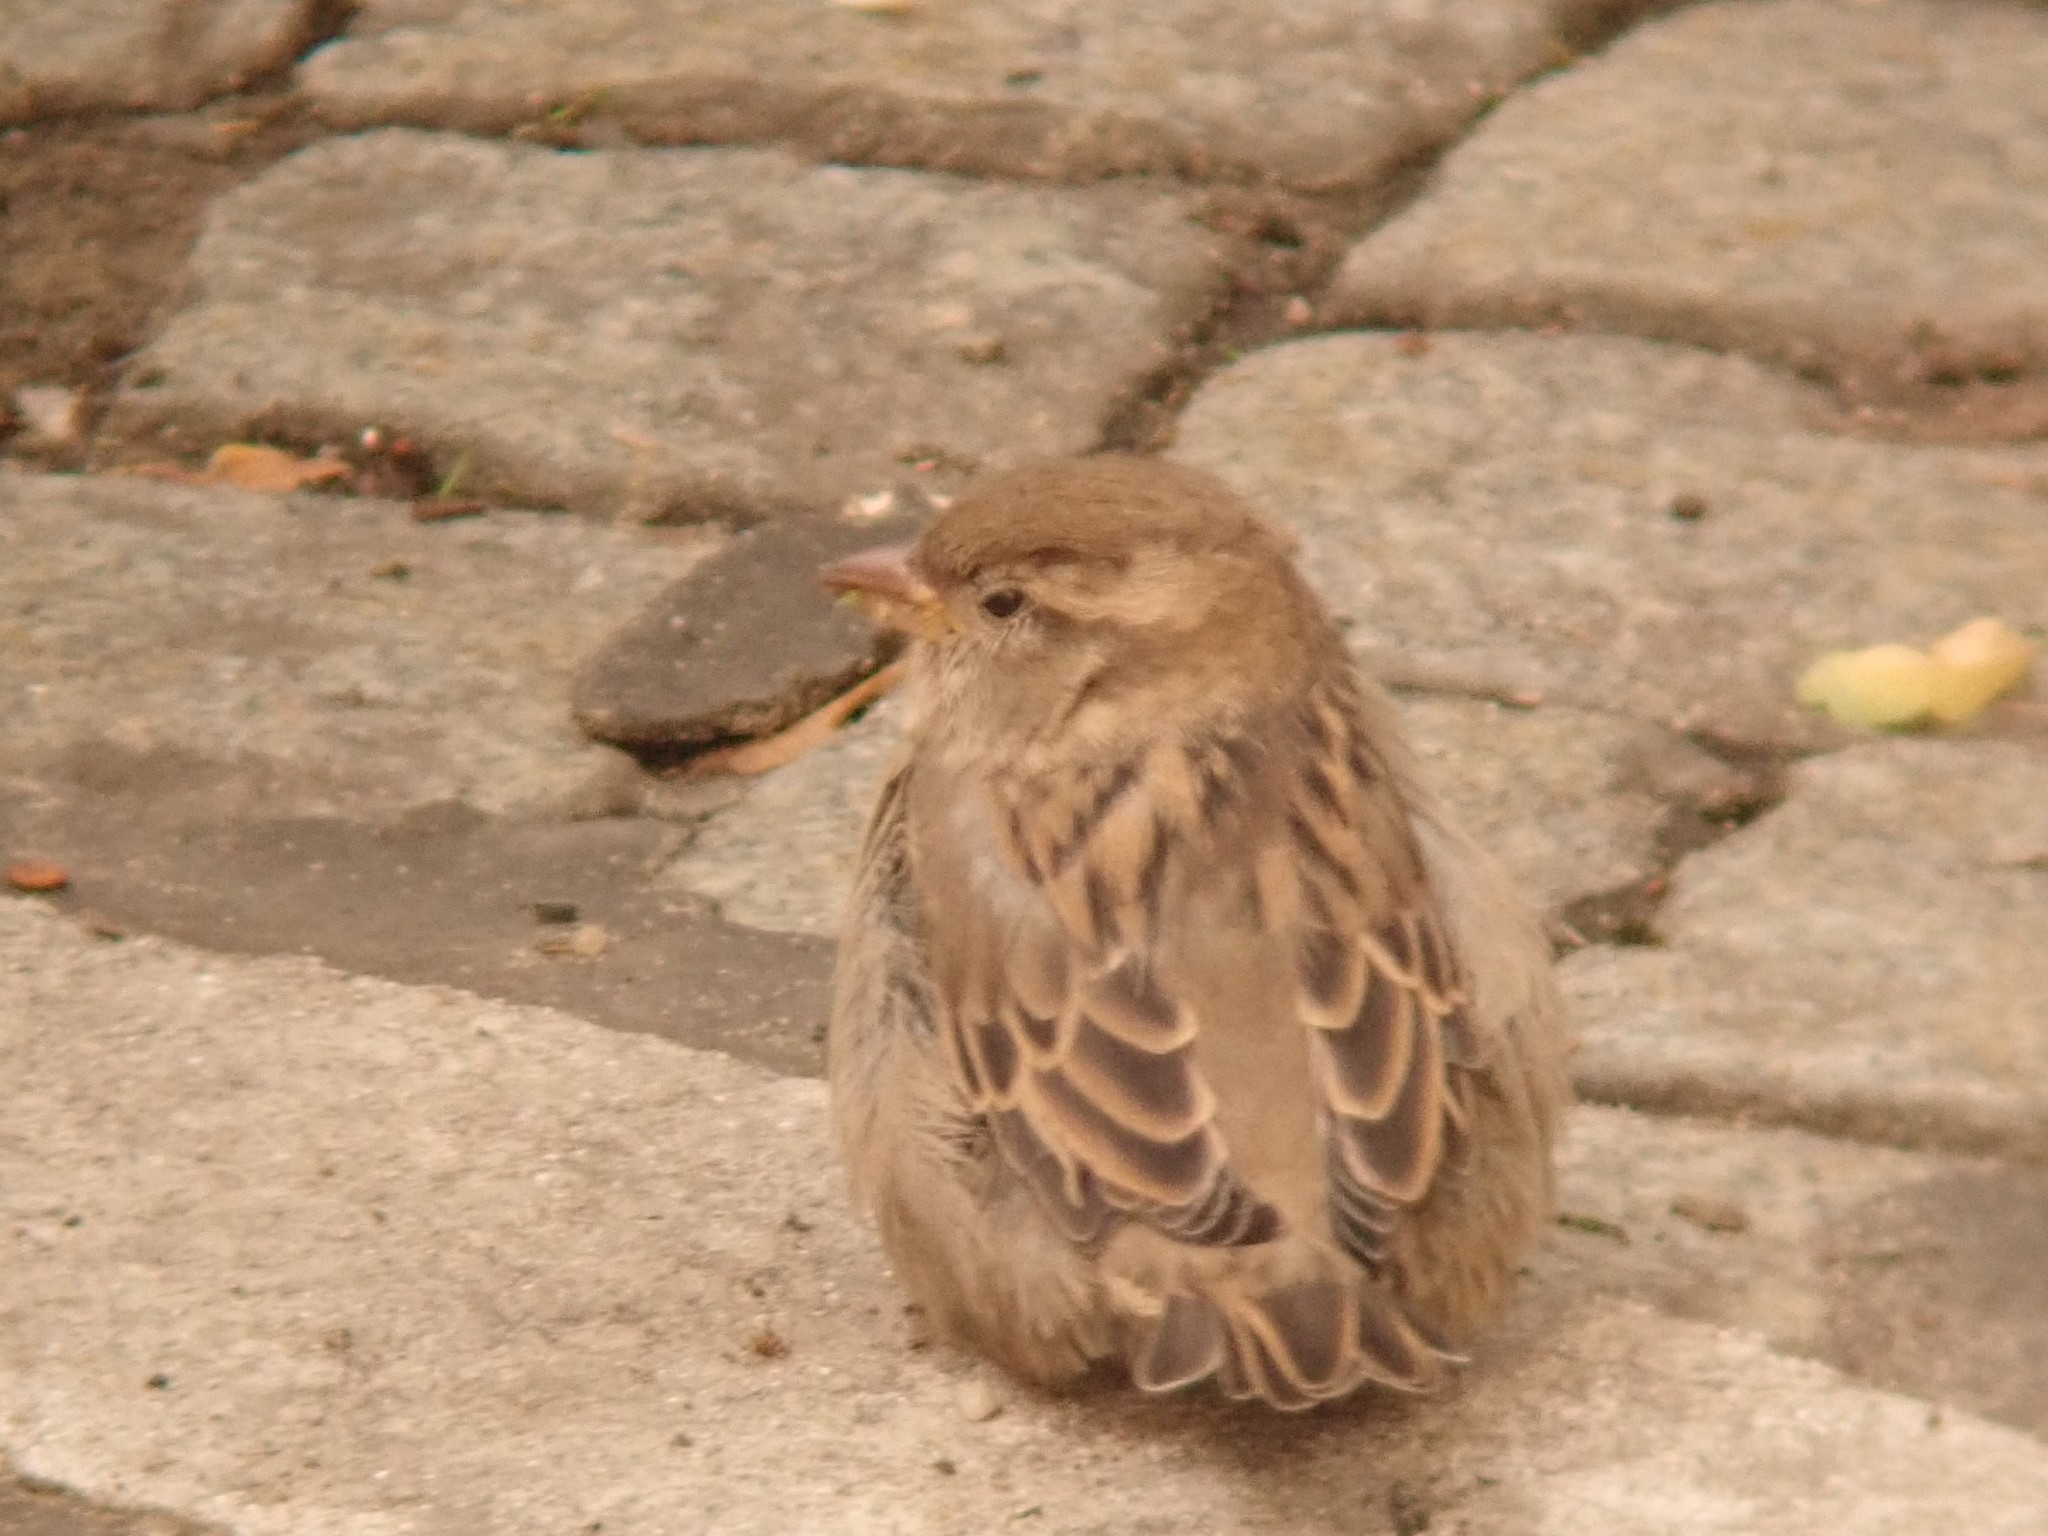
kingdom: Animalia
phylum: Chordata
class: Aves
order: Passeriformes
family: Passeridae
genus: Passer
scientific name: Passer domesticus
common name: House sparrow
